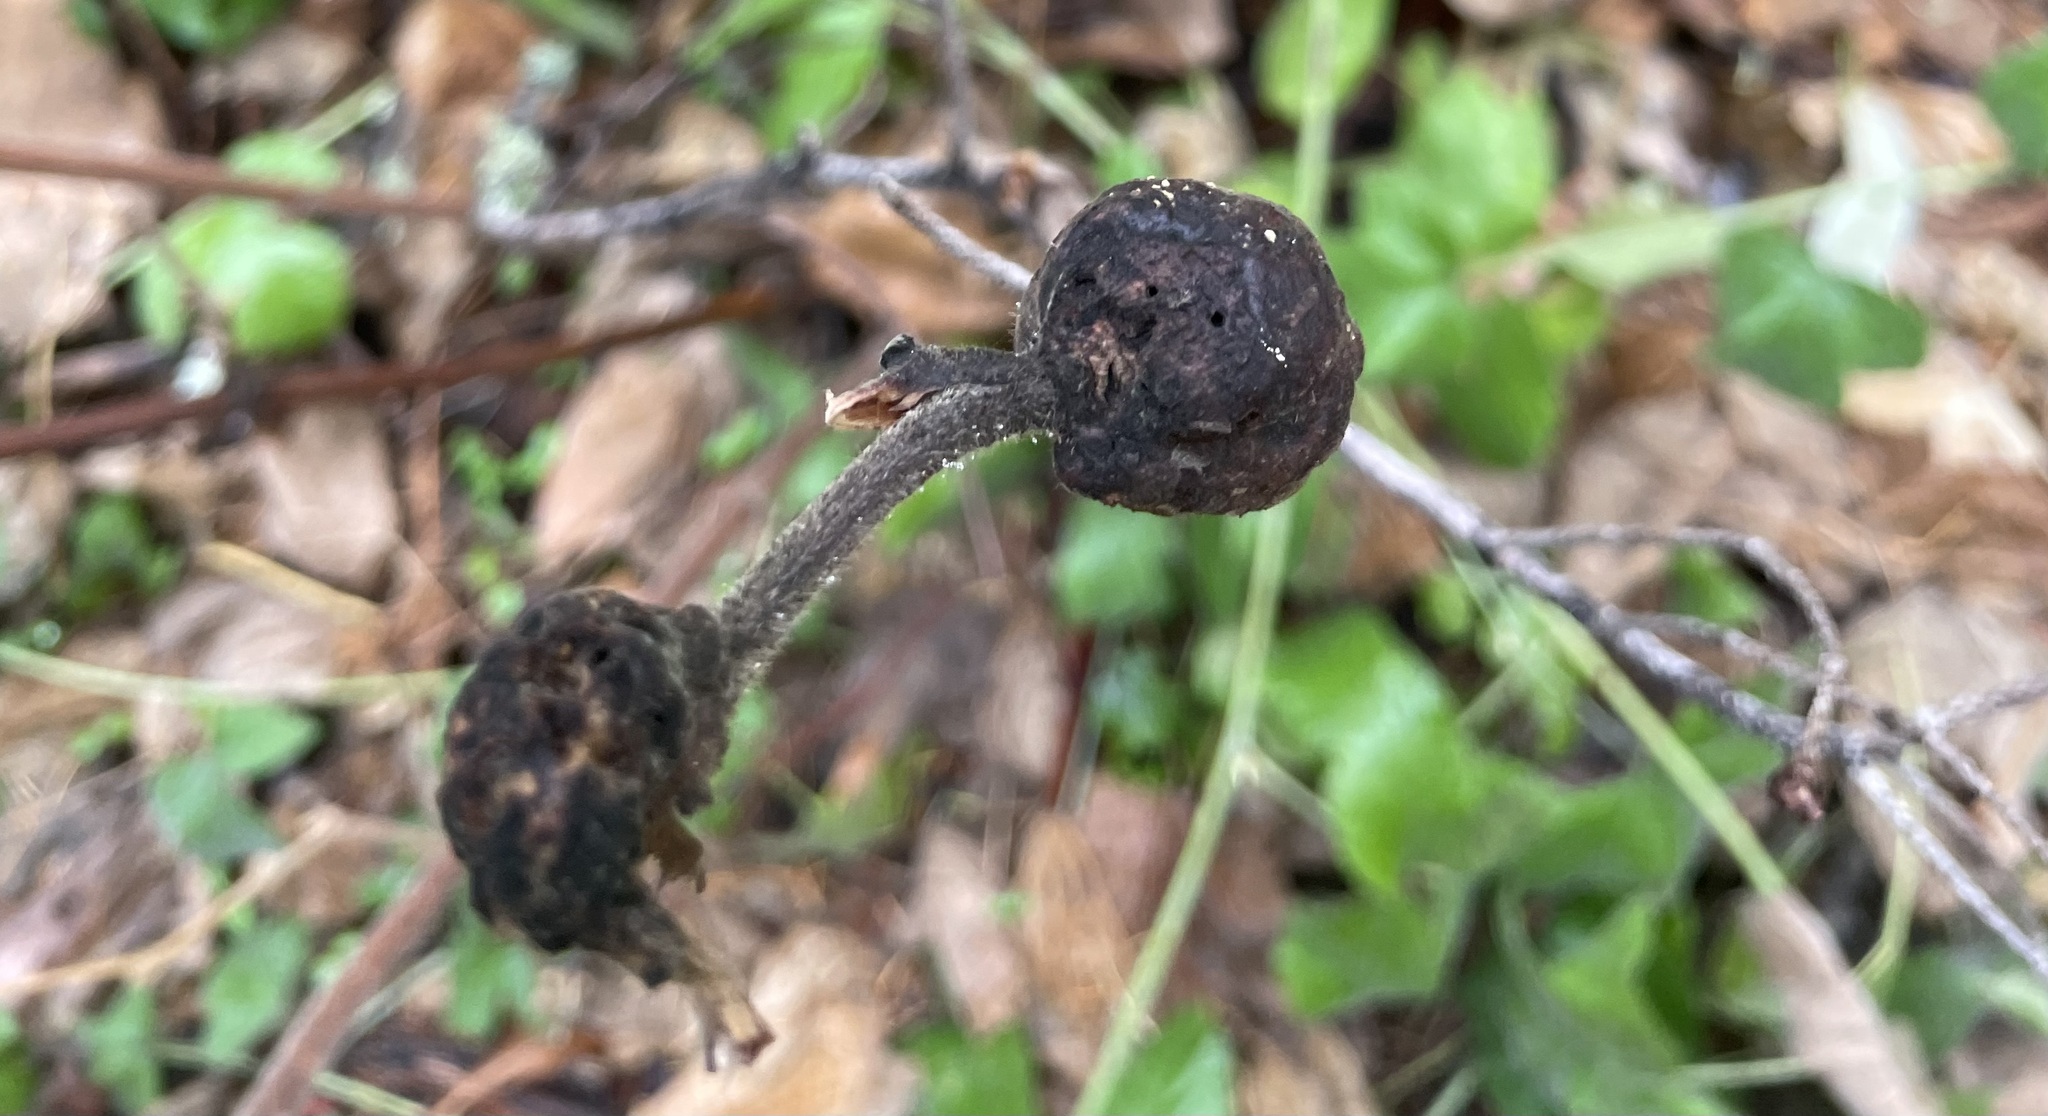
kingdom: Animalia
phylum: Arthropoda
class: Insecta
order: Hymenoptera
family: Cynipidae
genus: Diastrophus
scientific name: Diastrophus
